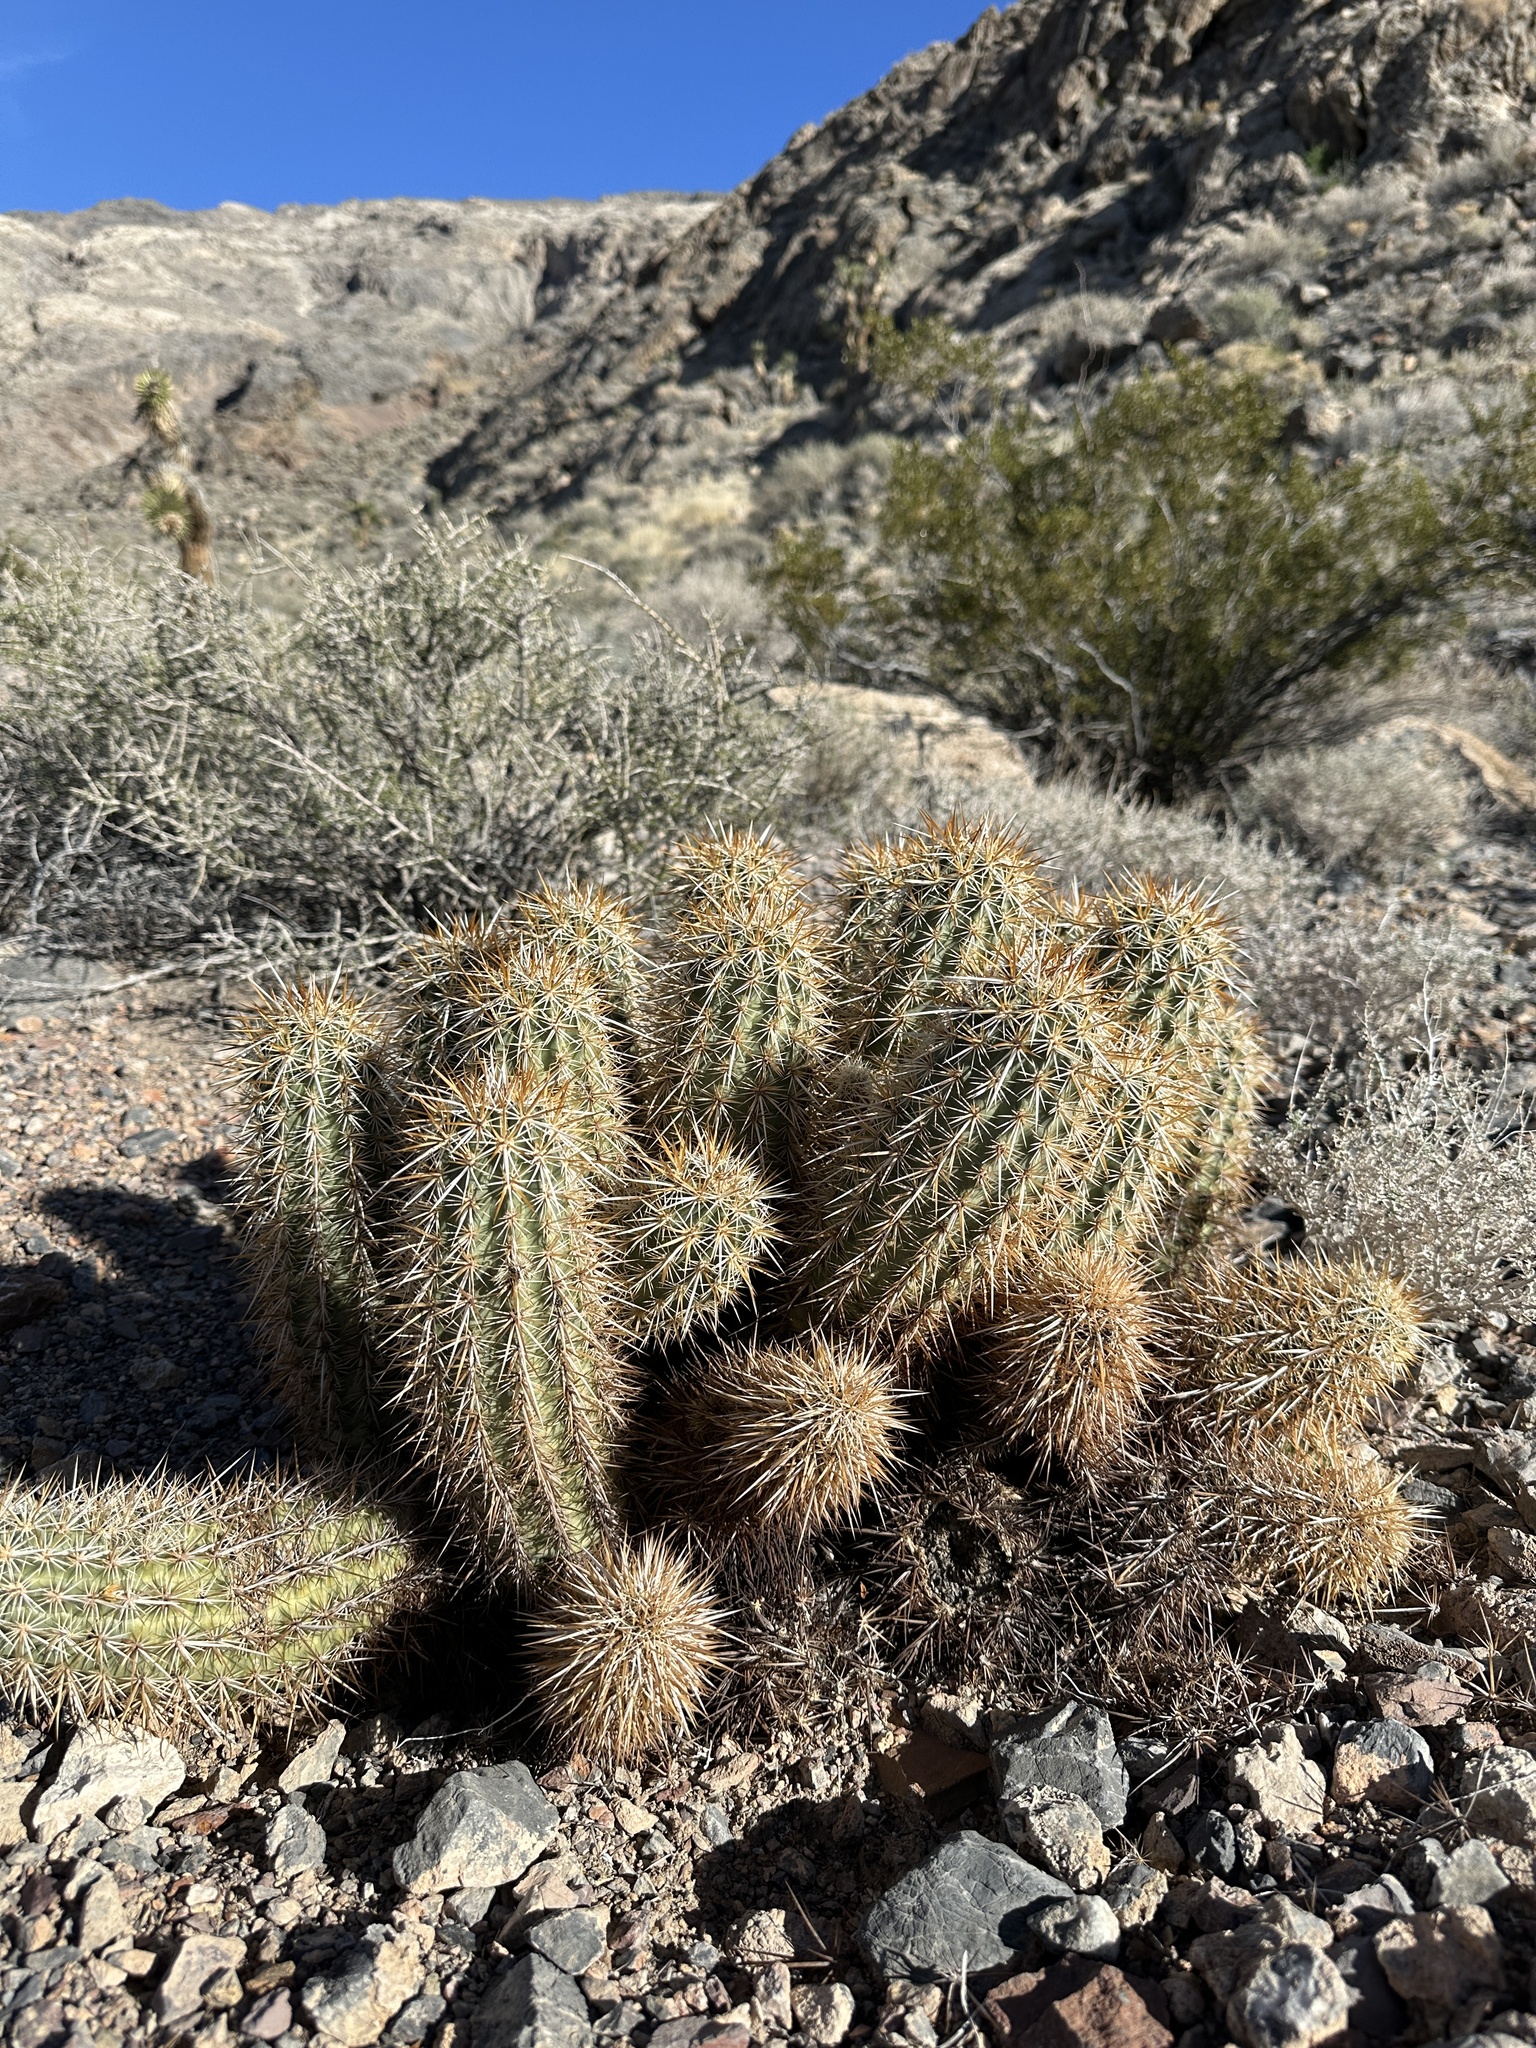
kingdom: Plantae
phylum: Tracheophyta
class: Magnoliopsida
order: Caryophyllales
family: Cactaceae
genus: Echinocereus
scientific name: Echinocereus engelmannii
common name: Engelmann's hedgehog cactus
